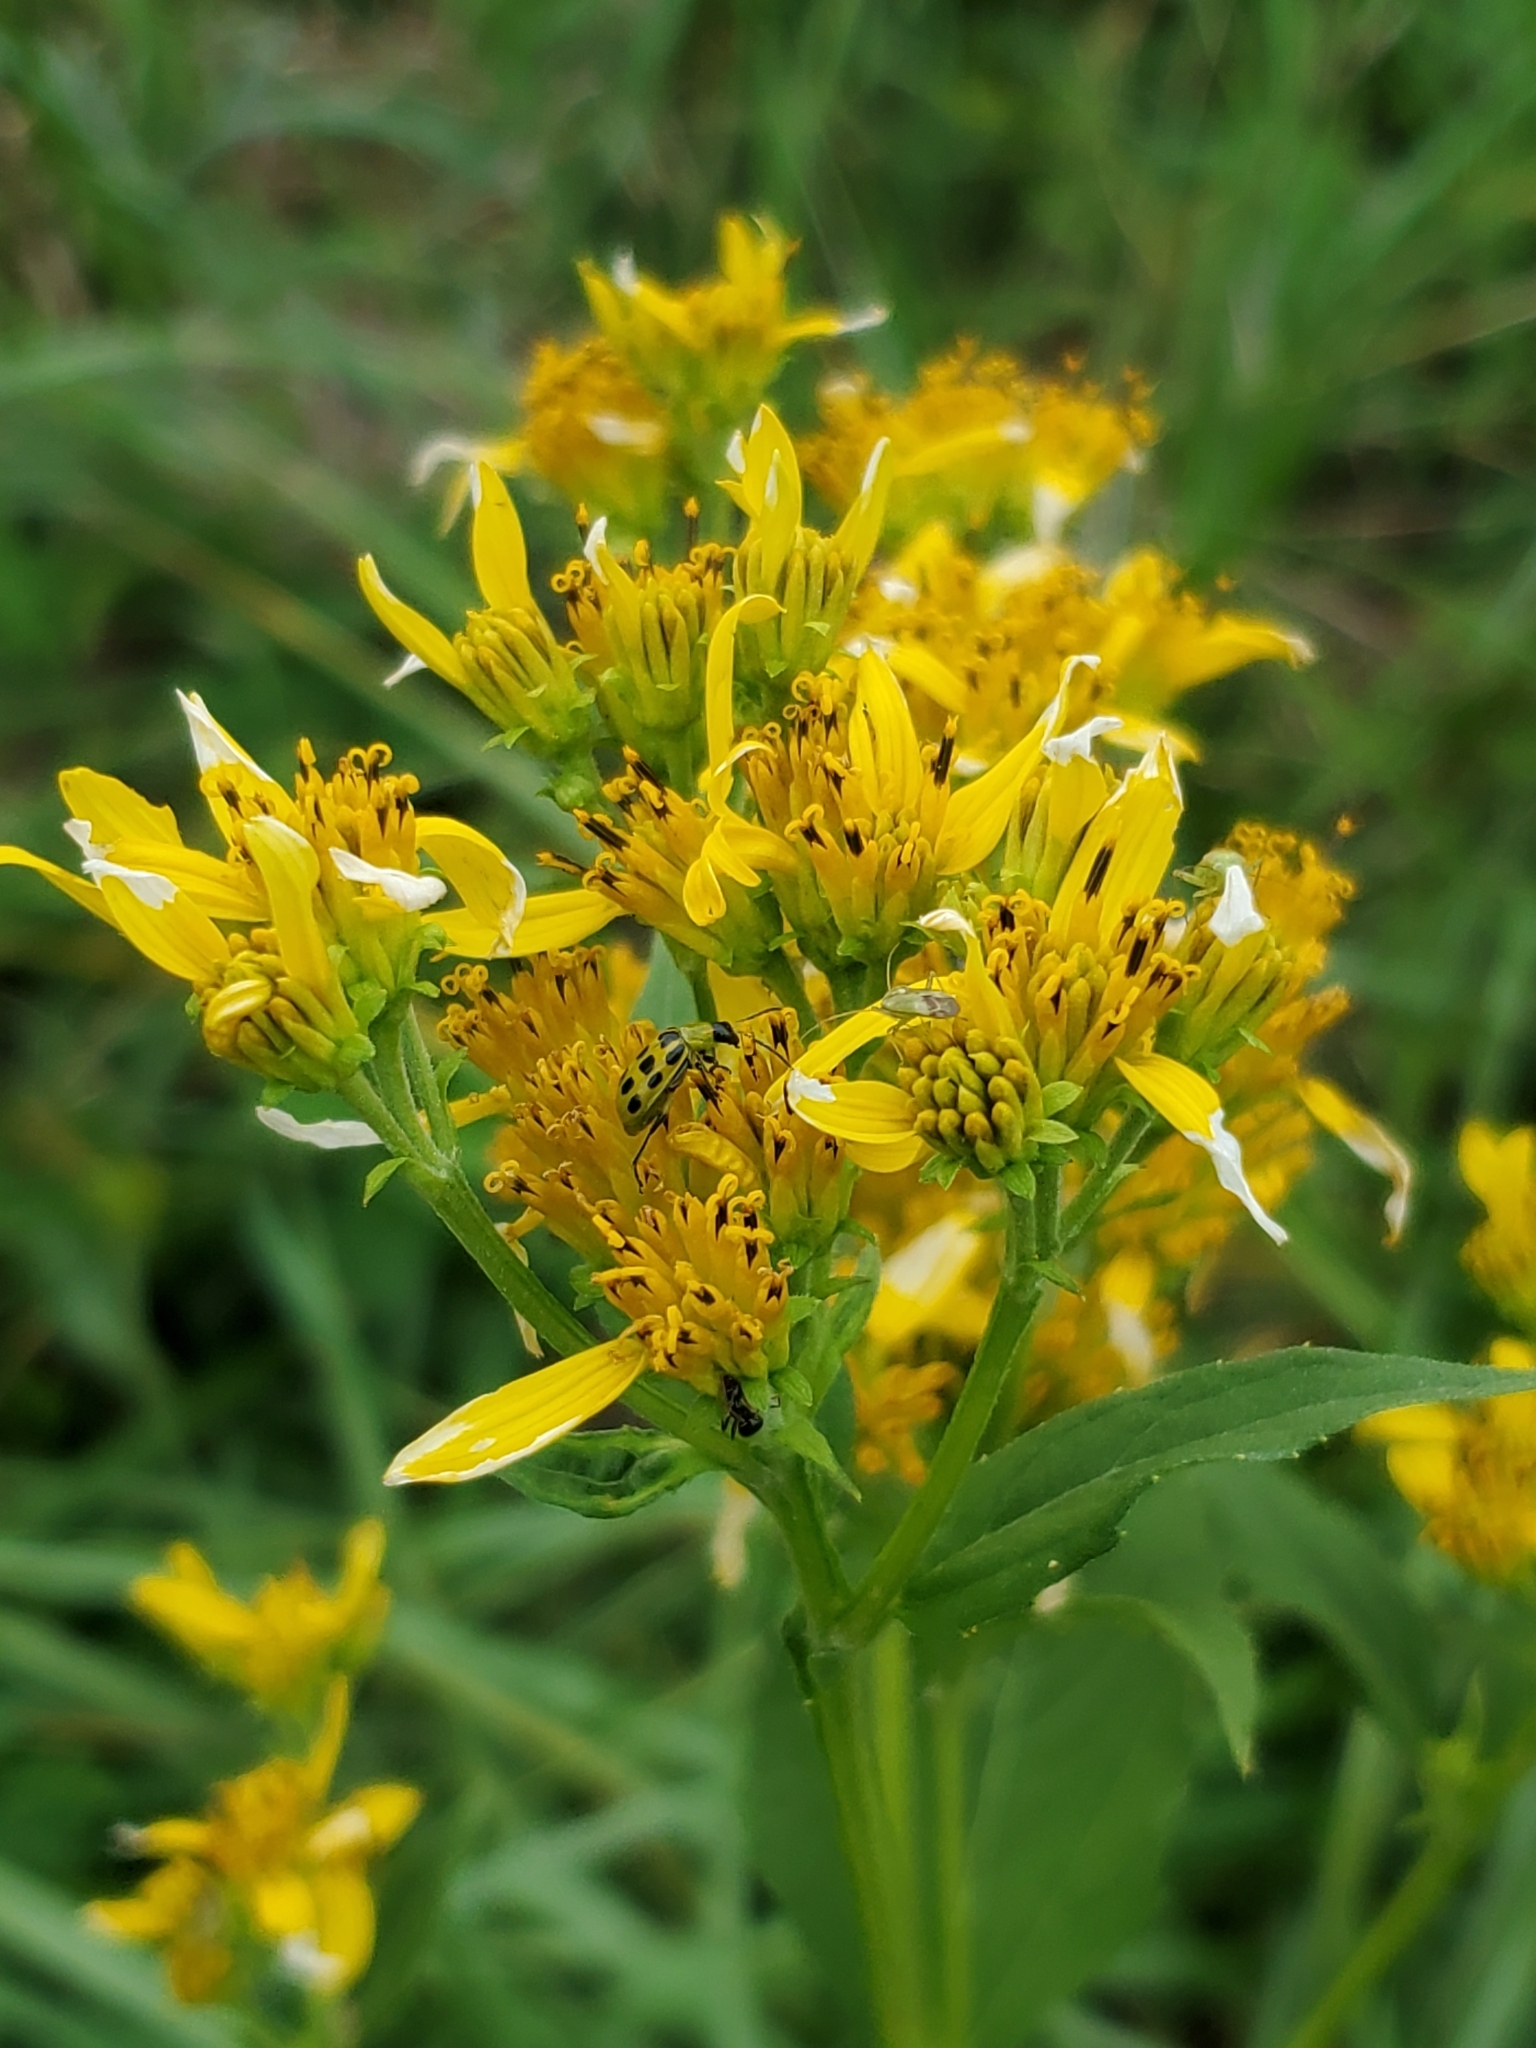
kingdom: Plantae
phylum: Tracheophyta
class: Magnoliopsida
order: Asterales
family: Asteraceae
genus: Verbesina
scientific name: Verbesina occidentalis
